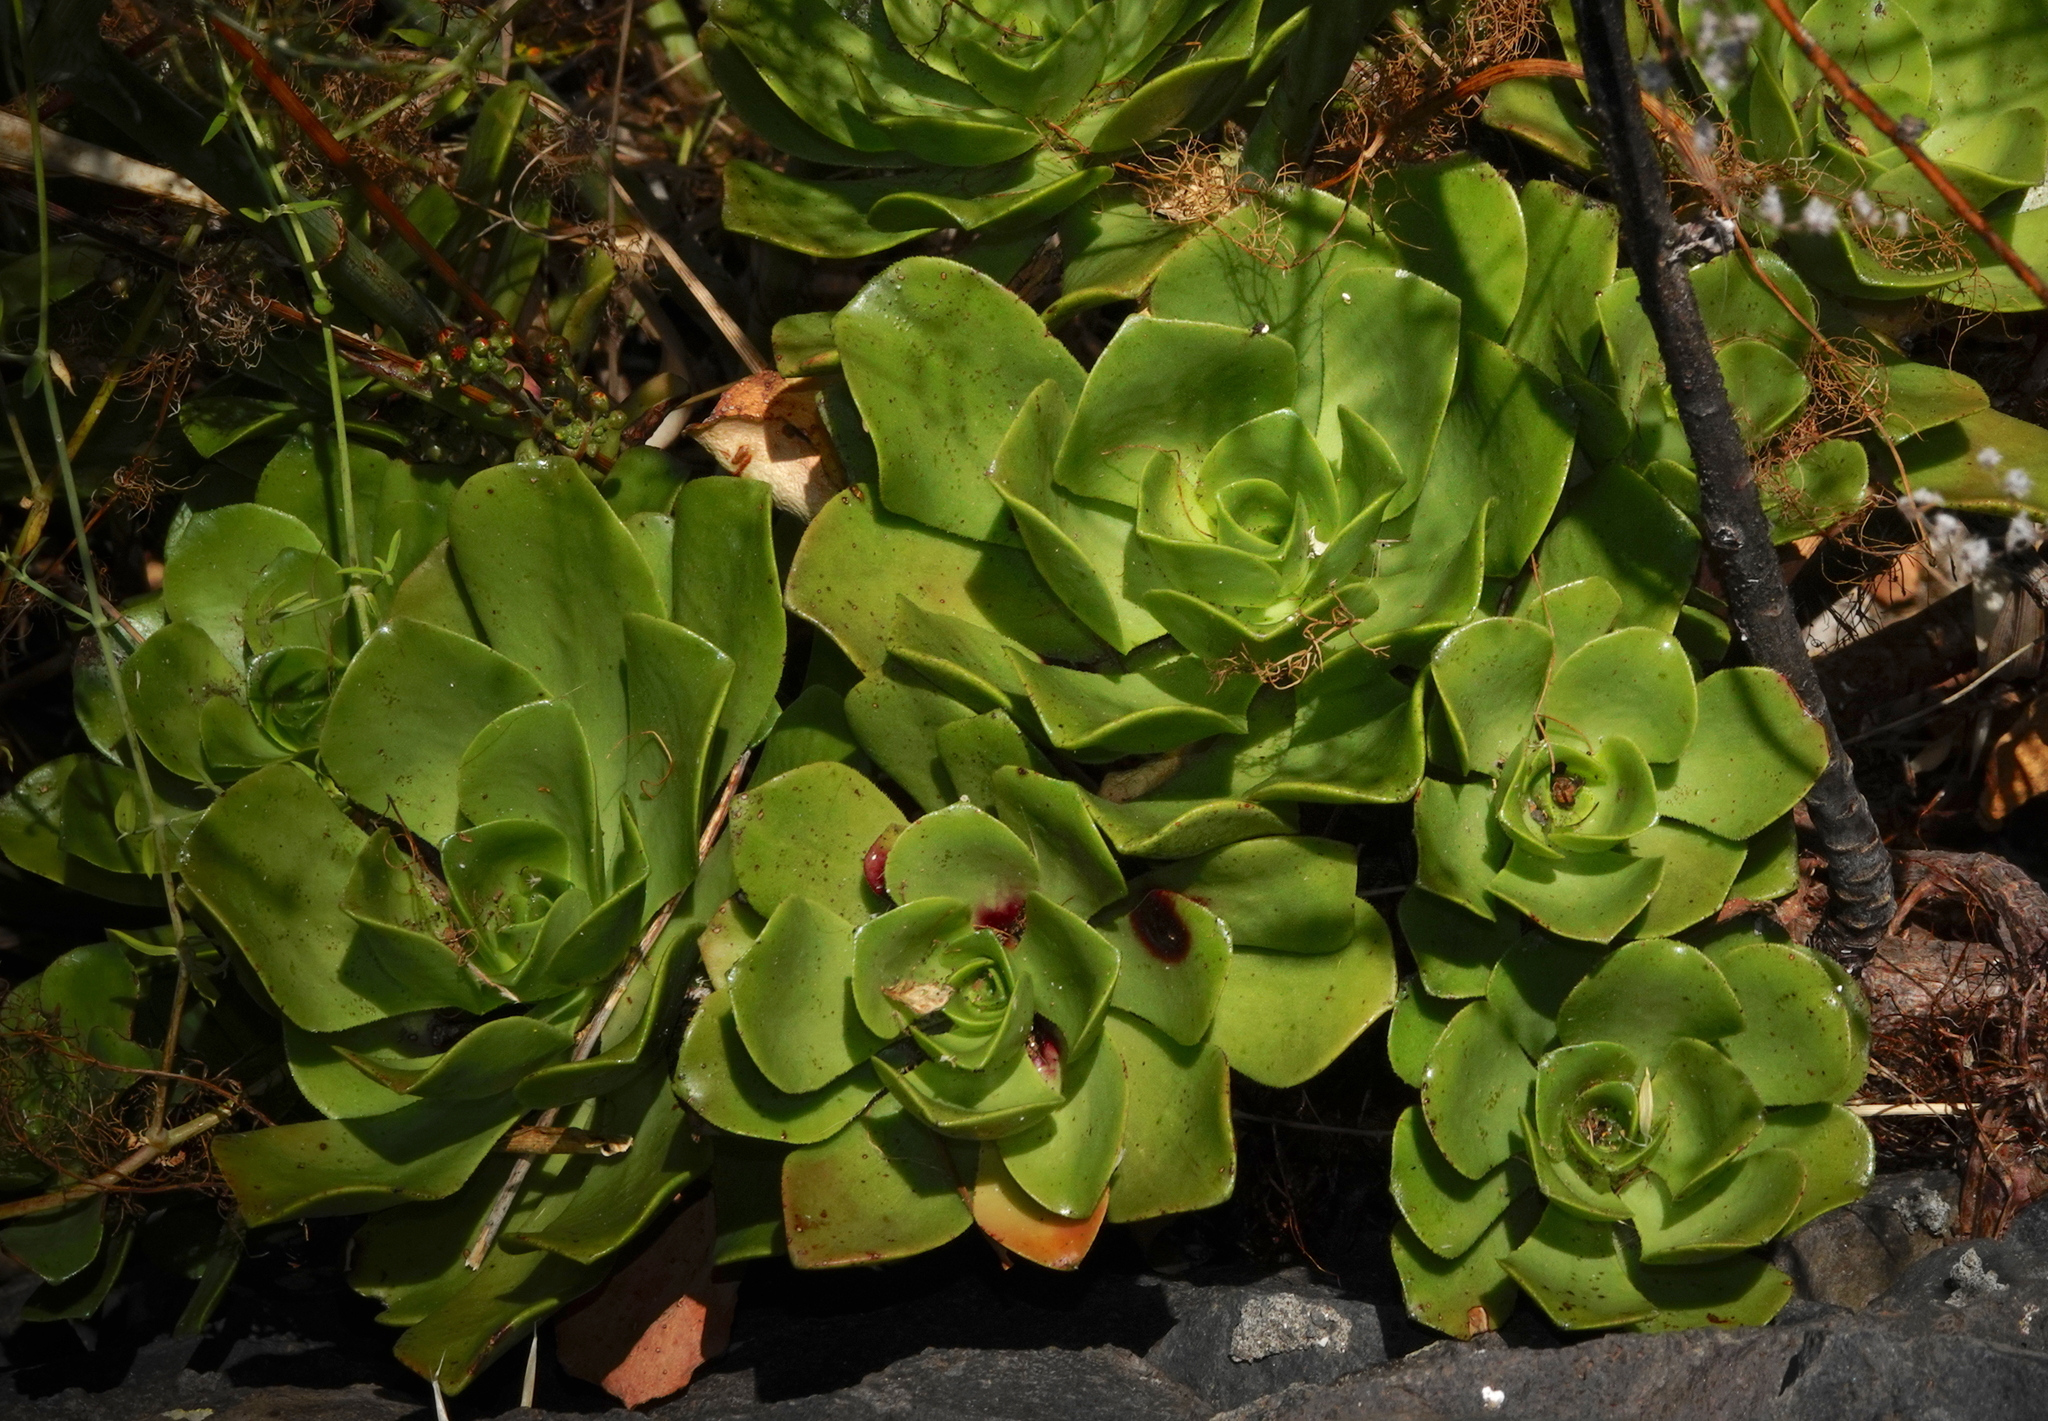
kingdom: Plantae
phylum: Tracheophyta
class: Magnoliopsida
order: Saxifragales
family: Crassulaceae
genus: Aeonium
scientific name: Aeonium glutinosum
